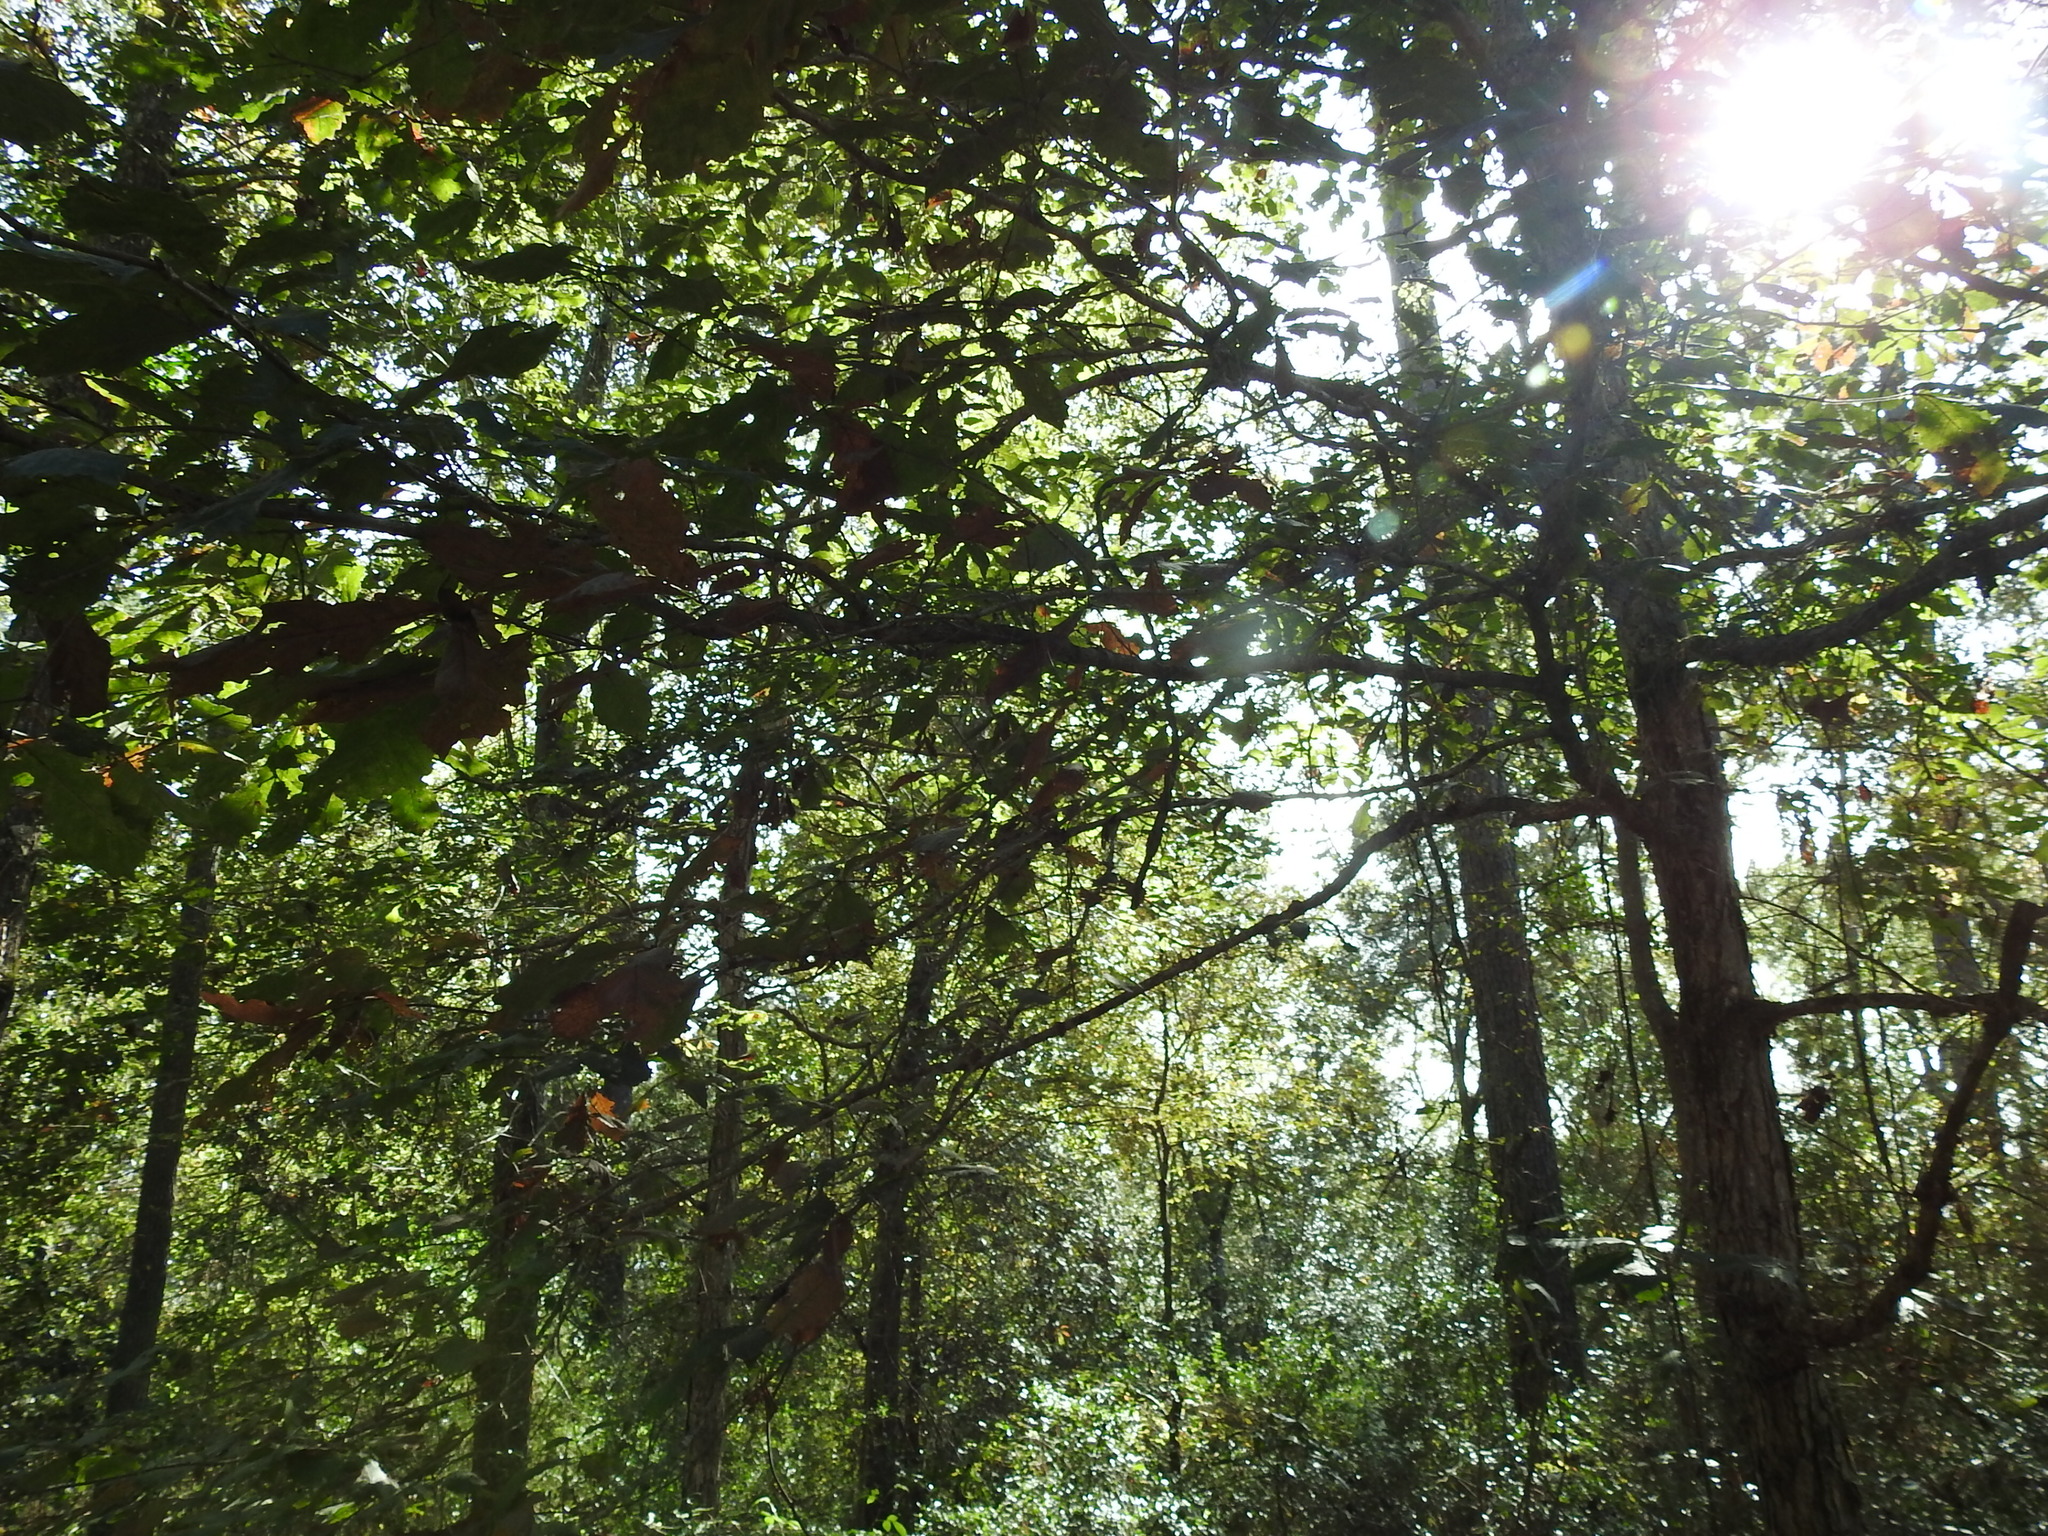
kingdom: Plantae
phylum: Tracheophyta
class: Magnoliopsida
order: Fagales
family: Fagaceae
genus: Quercus
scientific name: Quercus michauxii
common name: Swamp chestnut oak
